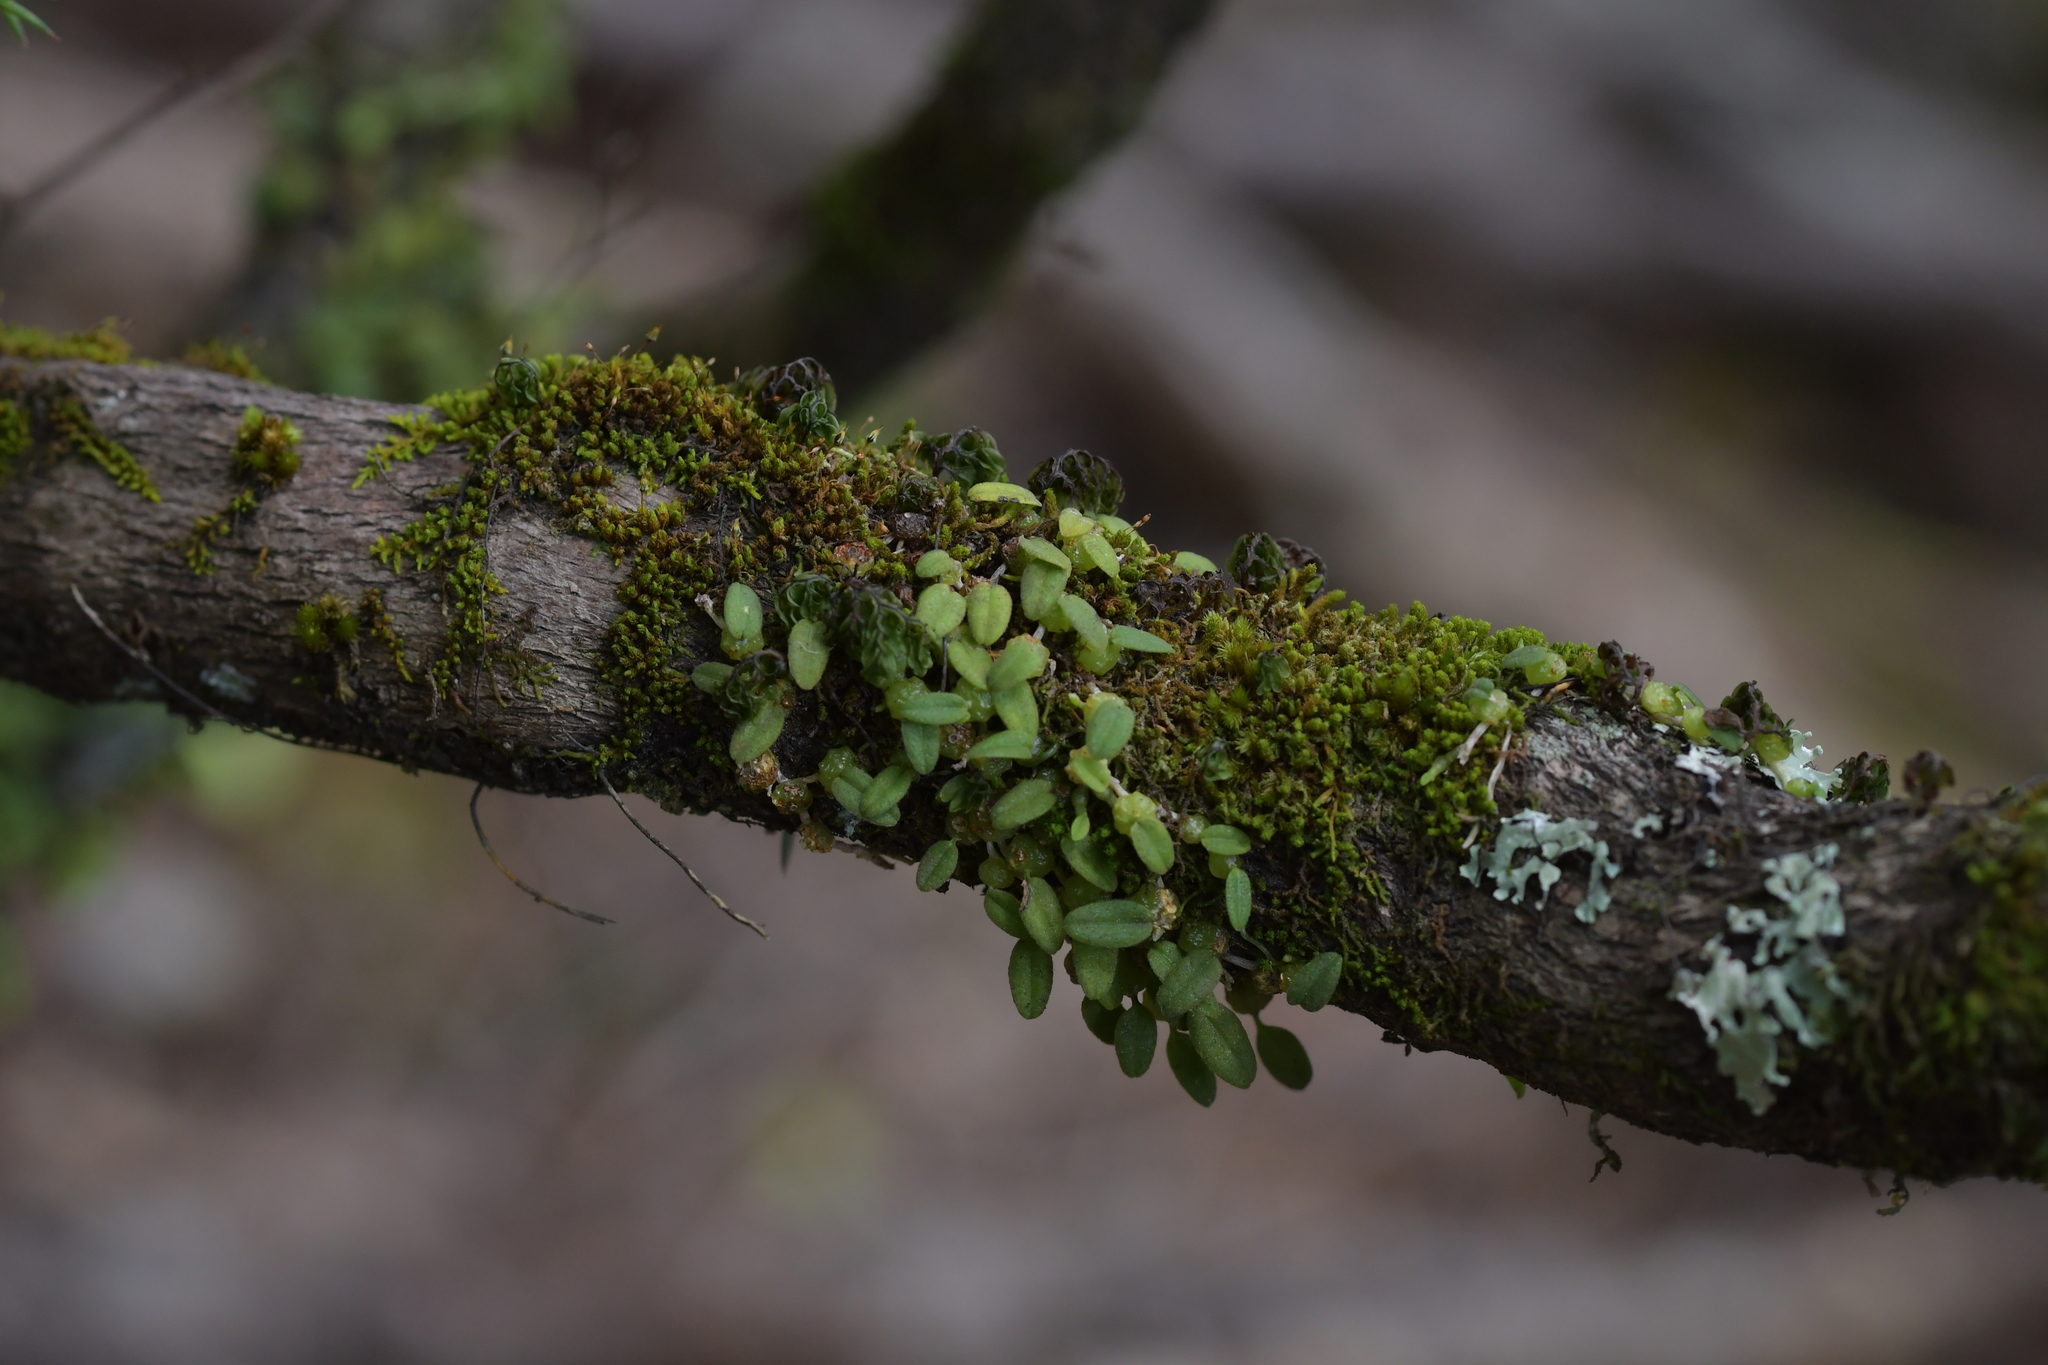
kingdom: Plantae
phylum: Tracheophyta
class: Liliopsida
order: Asparagales
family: Orchidaceae
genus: Bulbophyllum
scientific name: Bulbophyllum pygmaeum
